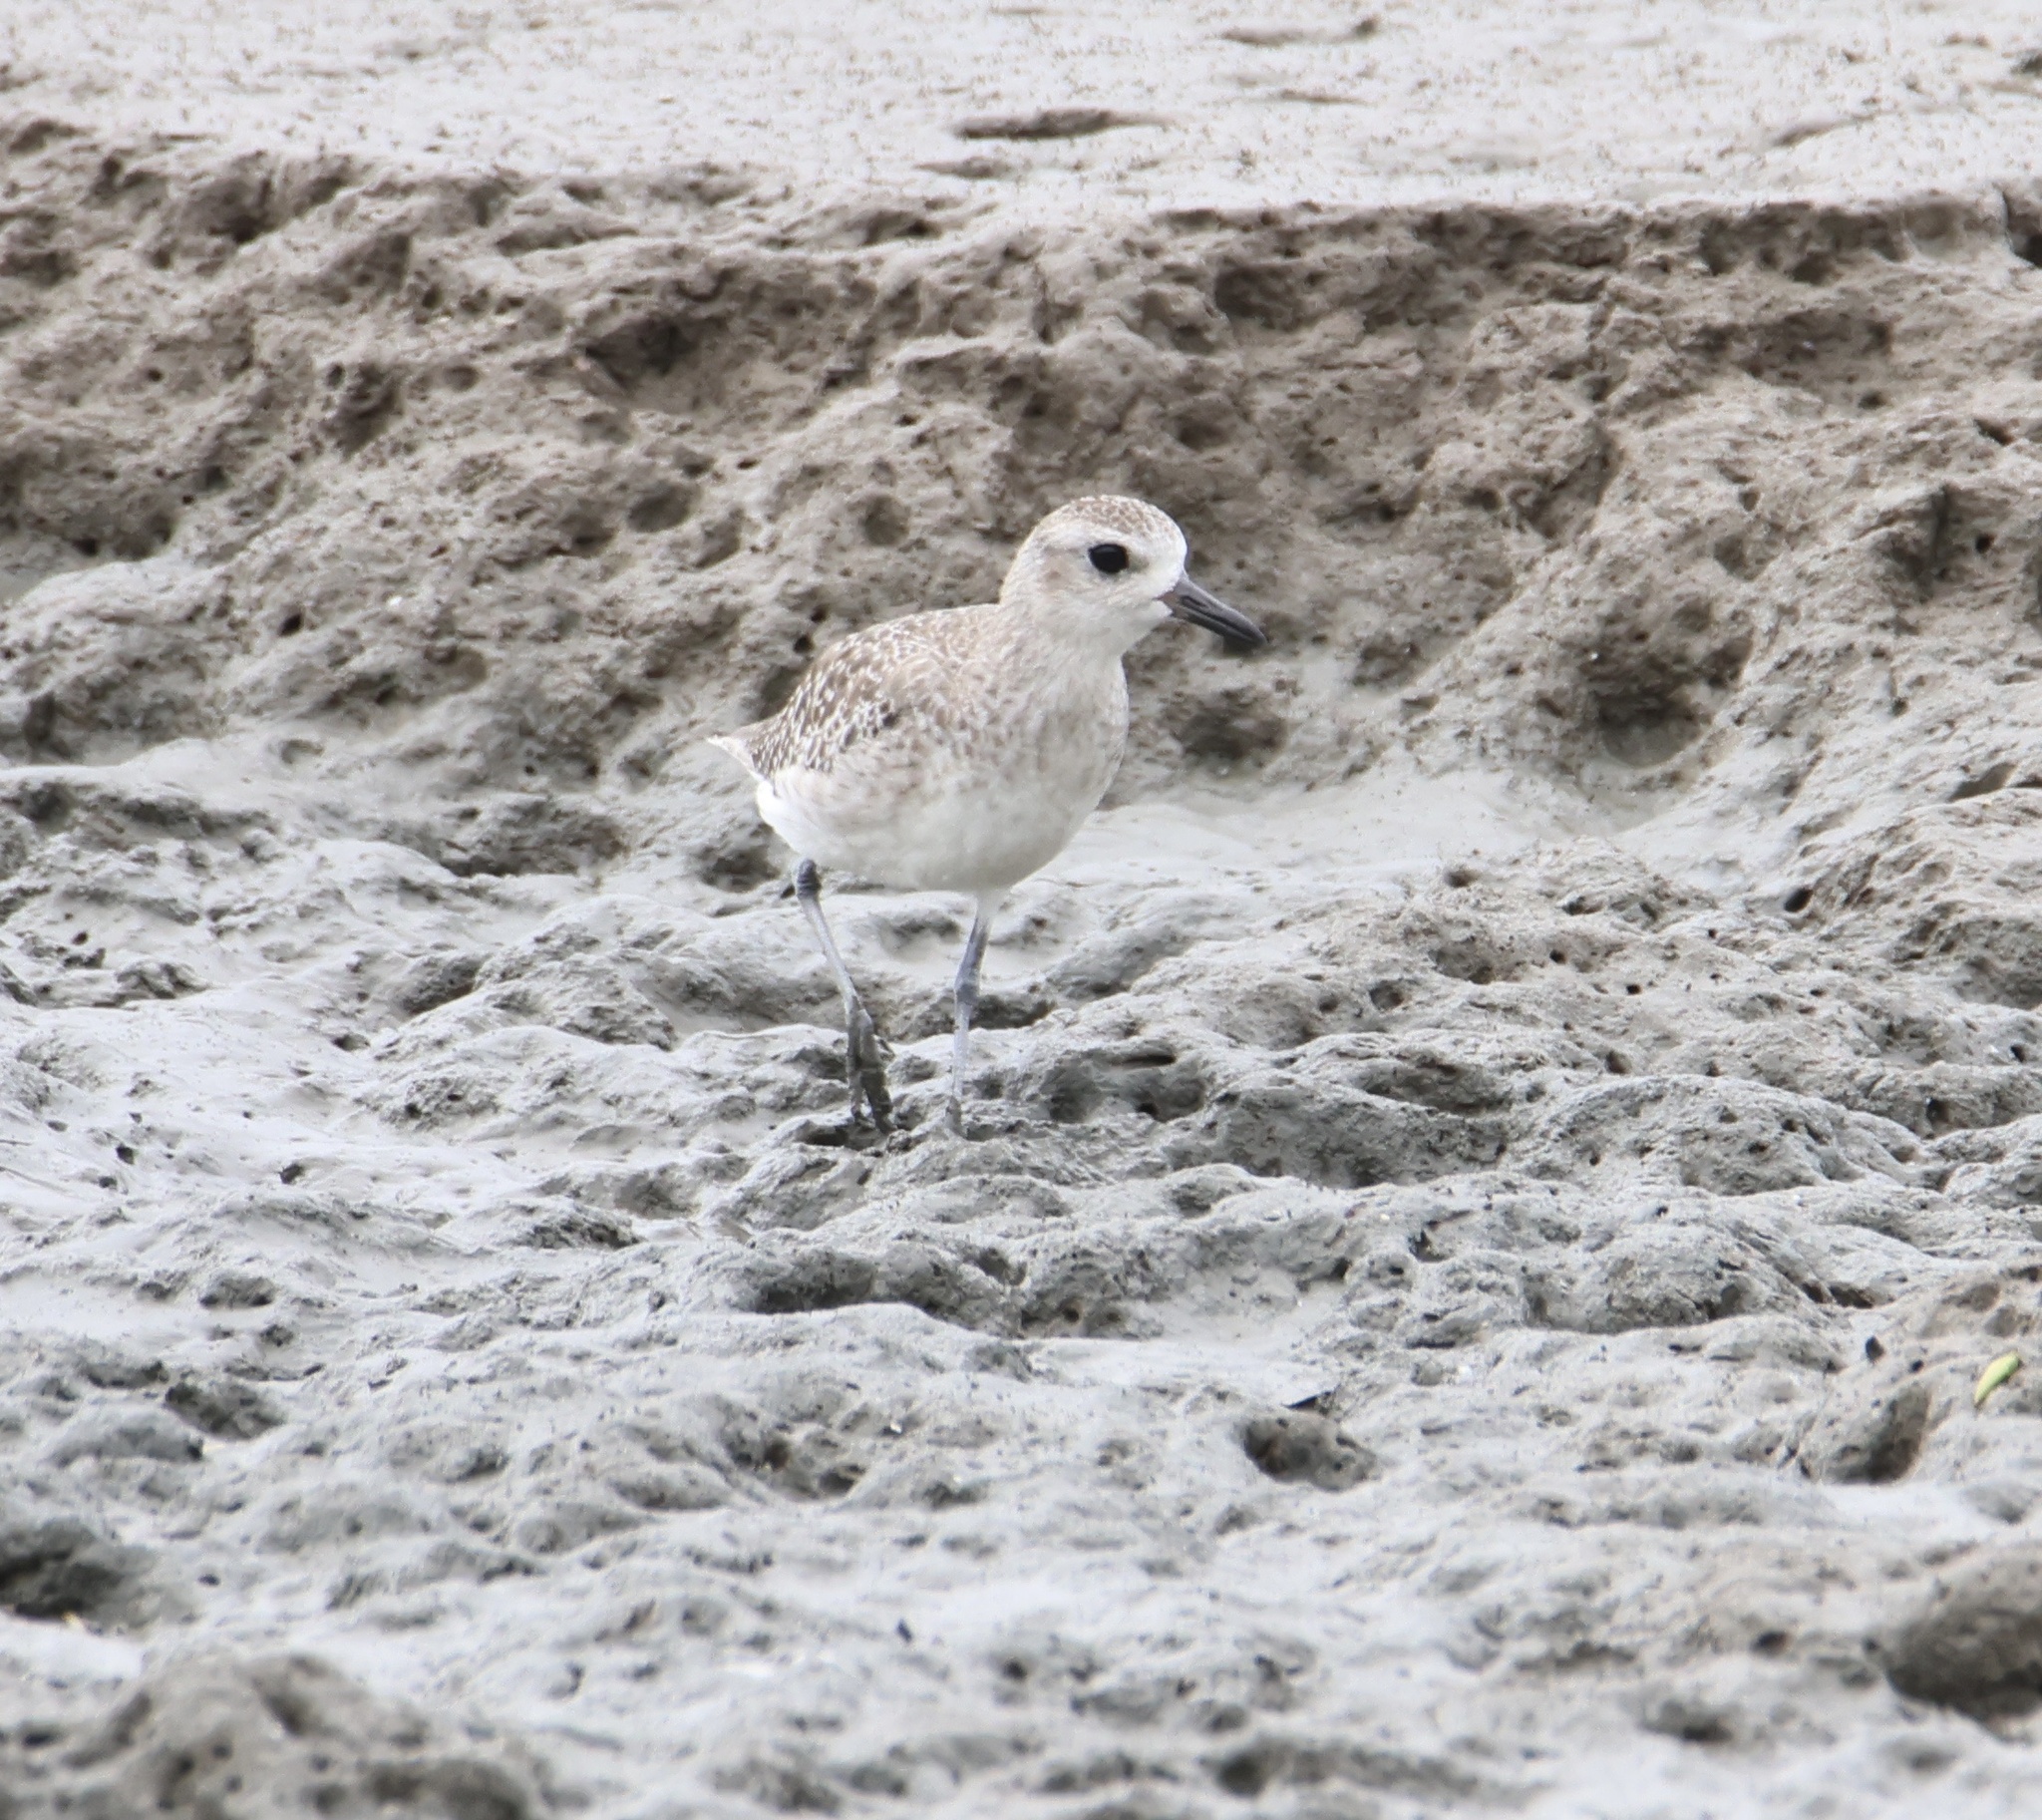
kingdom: Animalia
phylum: Chordata
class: Aves
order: Charadriiformes
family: Charadriidae
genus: Pluvialis
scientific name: Pluvialis squatarola
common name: Grey plover
